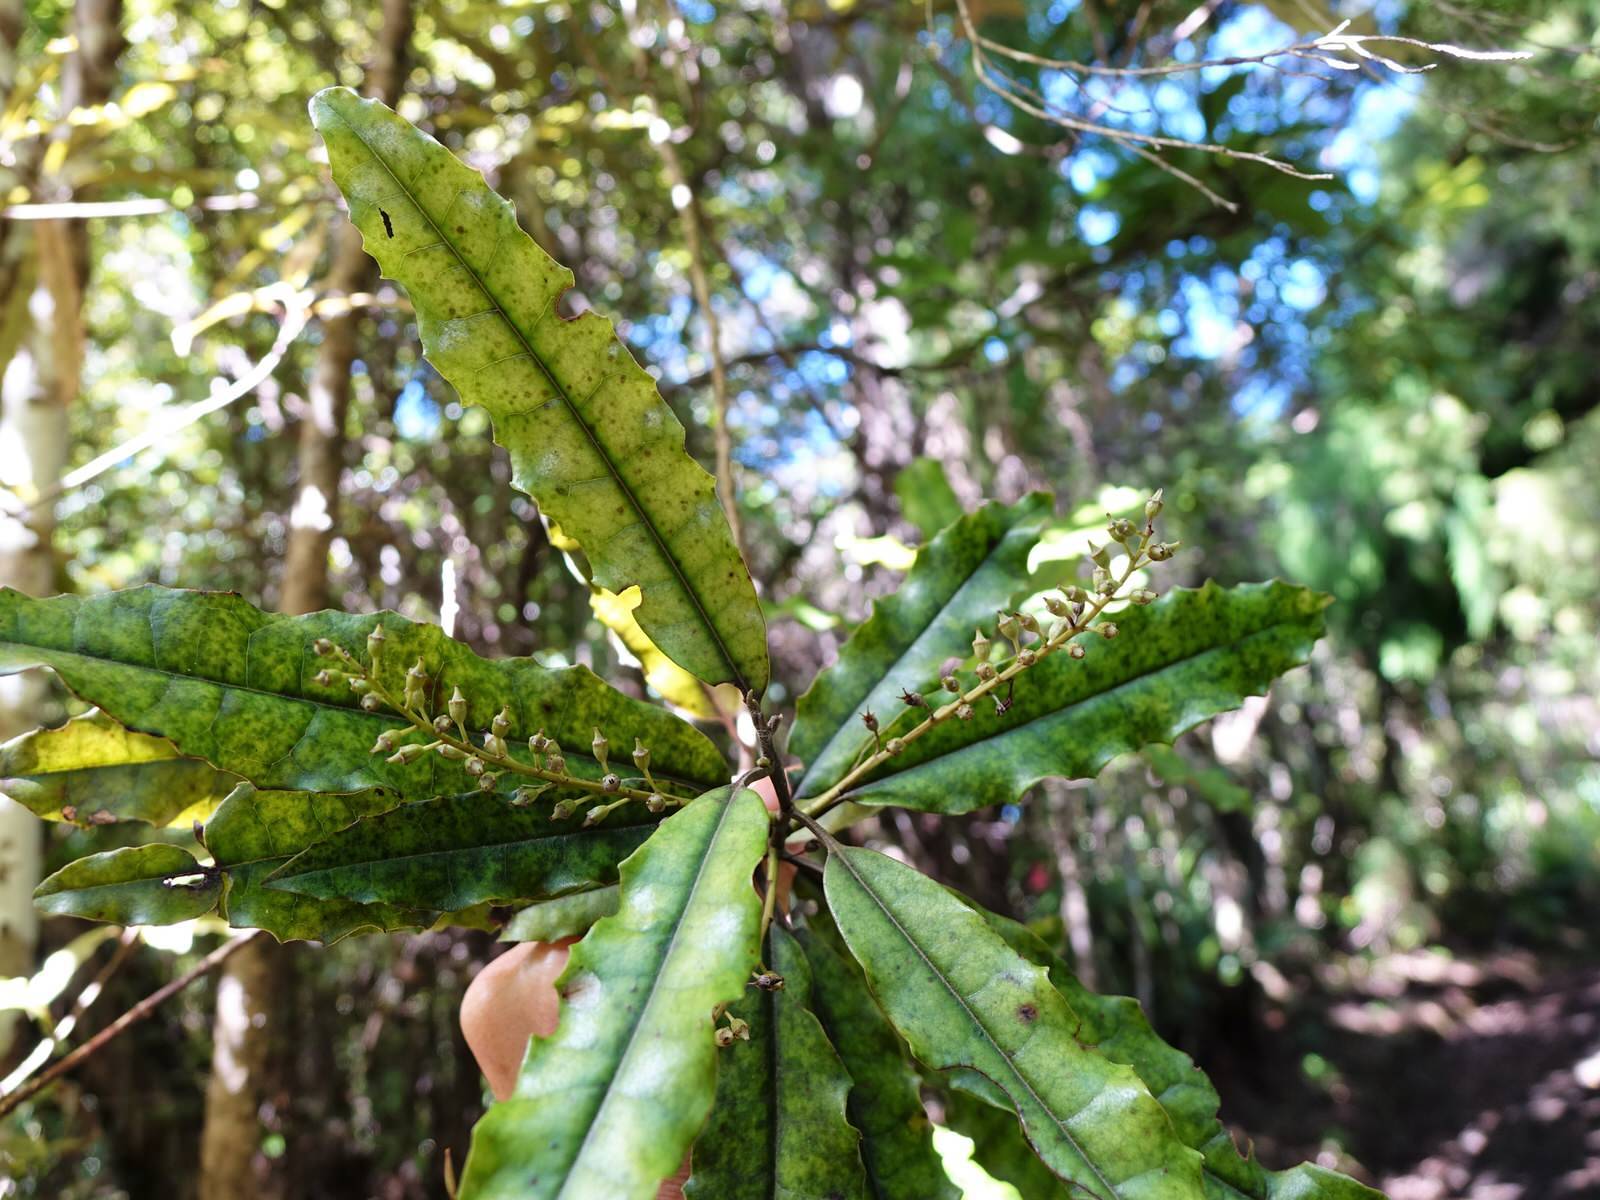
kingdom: Plantae
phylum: Tracheophyta
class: Magnoliopsida
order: Paracryphiales
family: Paracryphiaceae
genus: Quintinia
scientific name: Quintinia serrata
